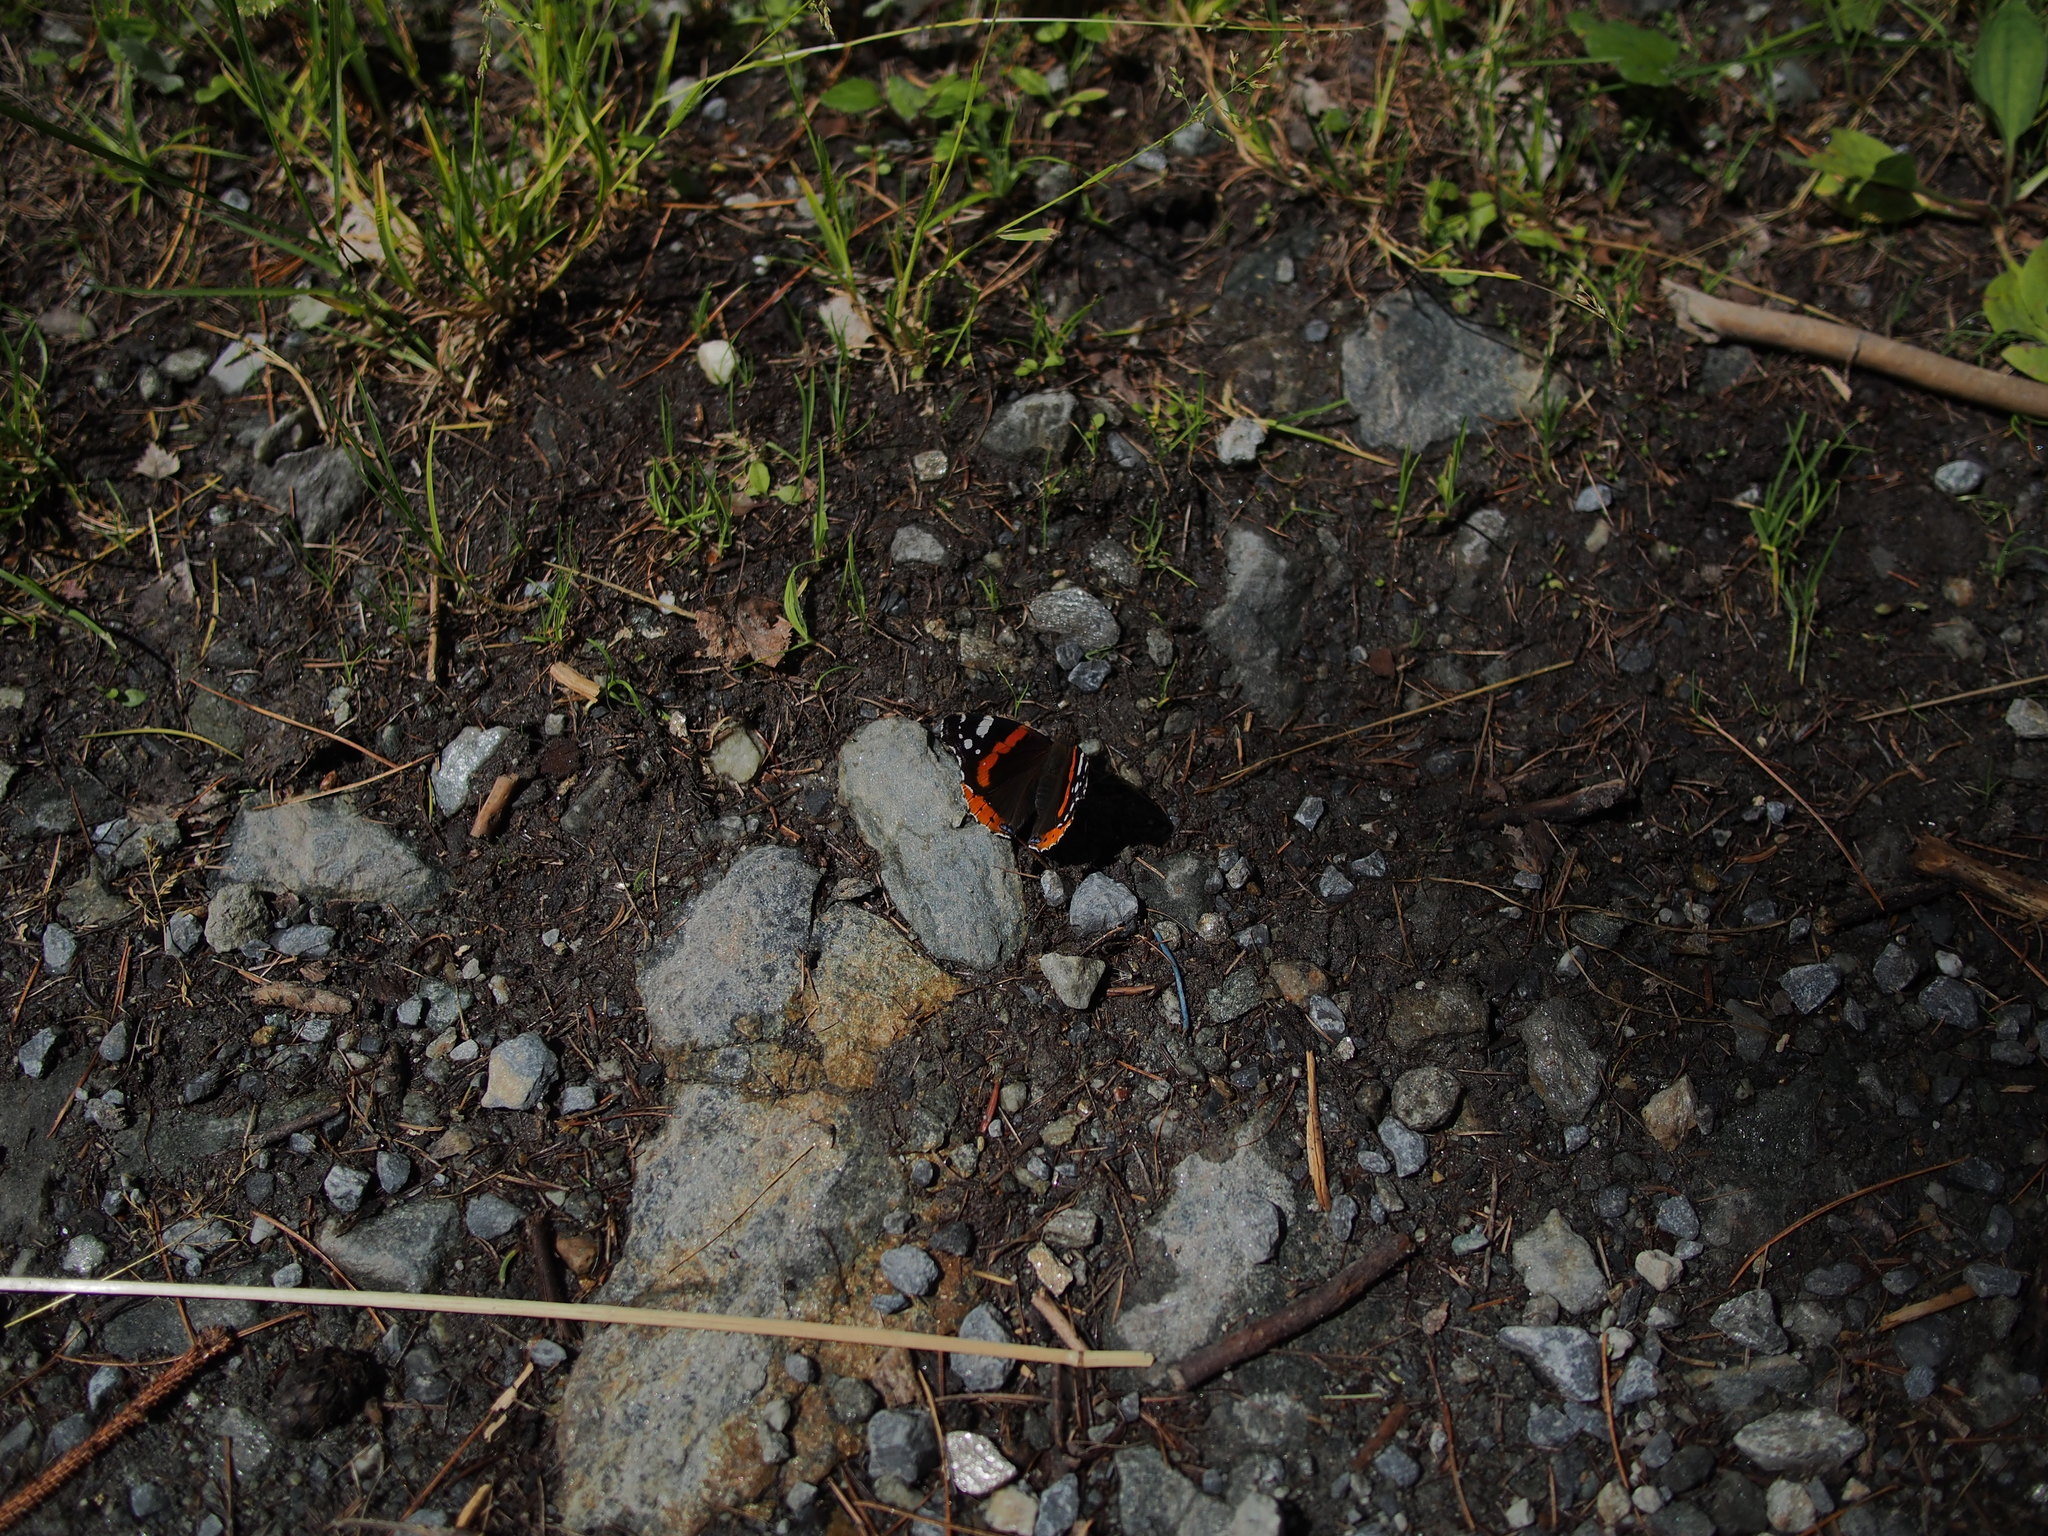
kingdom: Animalia
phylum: Arthropoda
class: Insecta
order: Lepidoptera
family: Nymphalidae
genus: Vanessa
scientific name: Vanessa atalanta
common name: Red admiral
